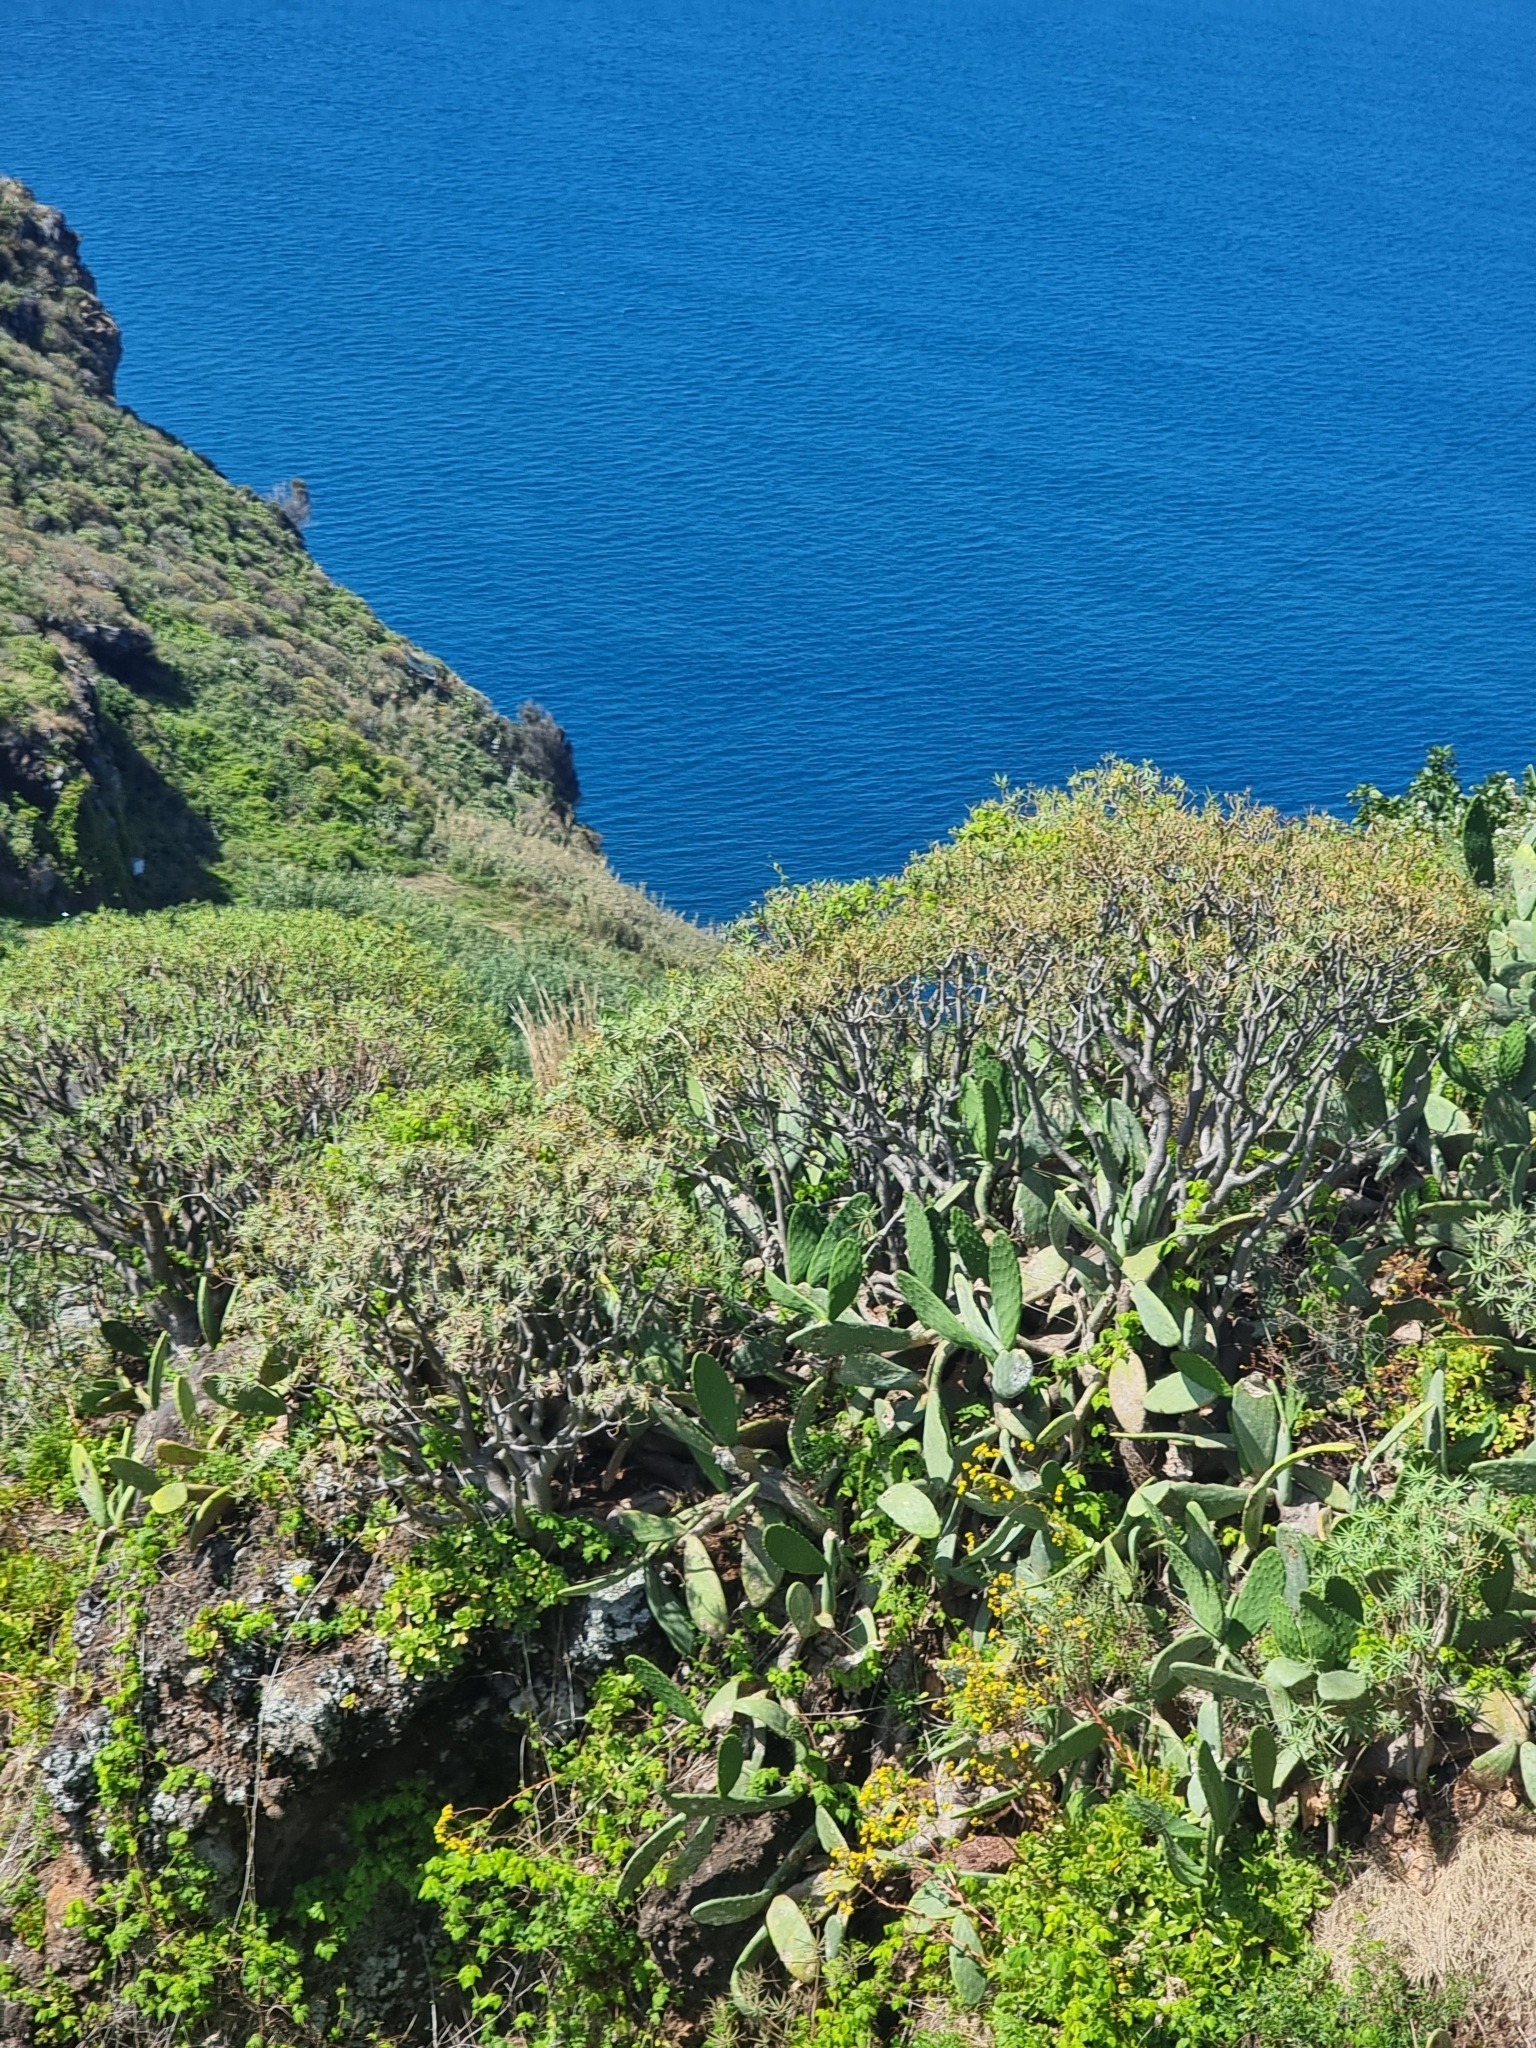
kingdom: Plantae
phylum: Tracheophyta
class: Magnoliopsida
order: Malpighiales
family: Euphorbiaceae
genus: Euphorbia
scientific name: Euphorbia piscatoria
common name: Fish-stunning spurge
